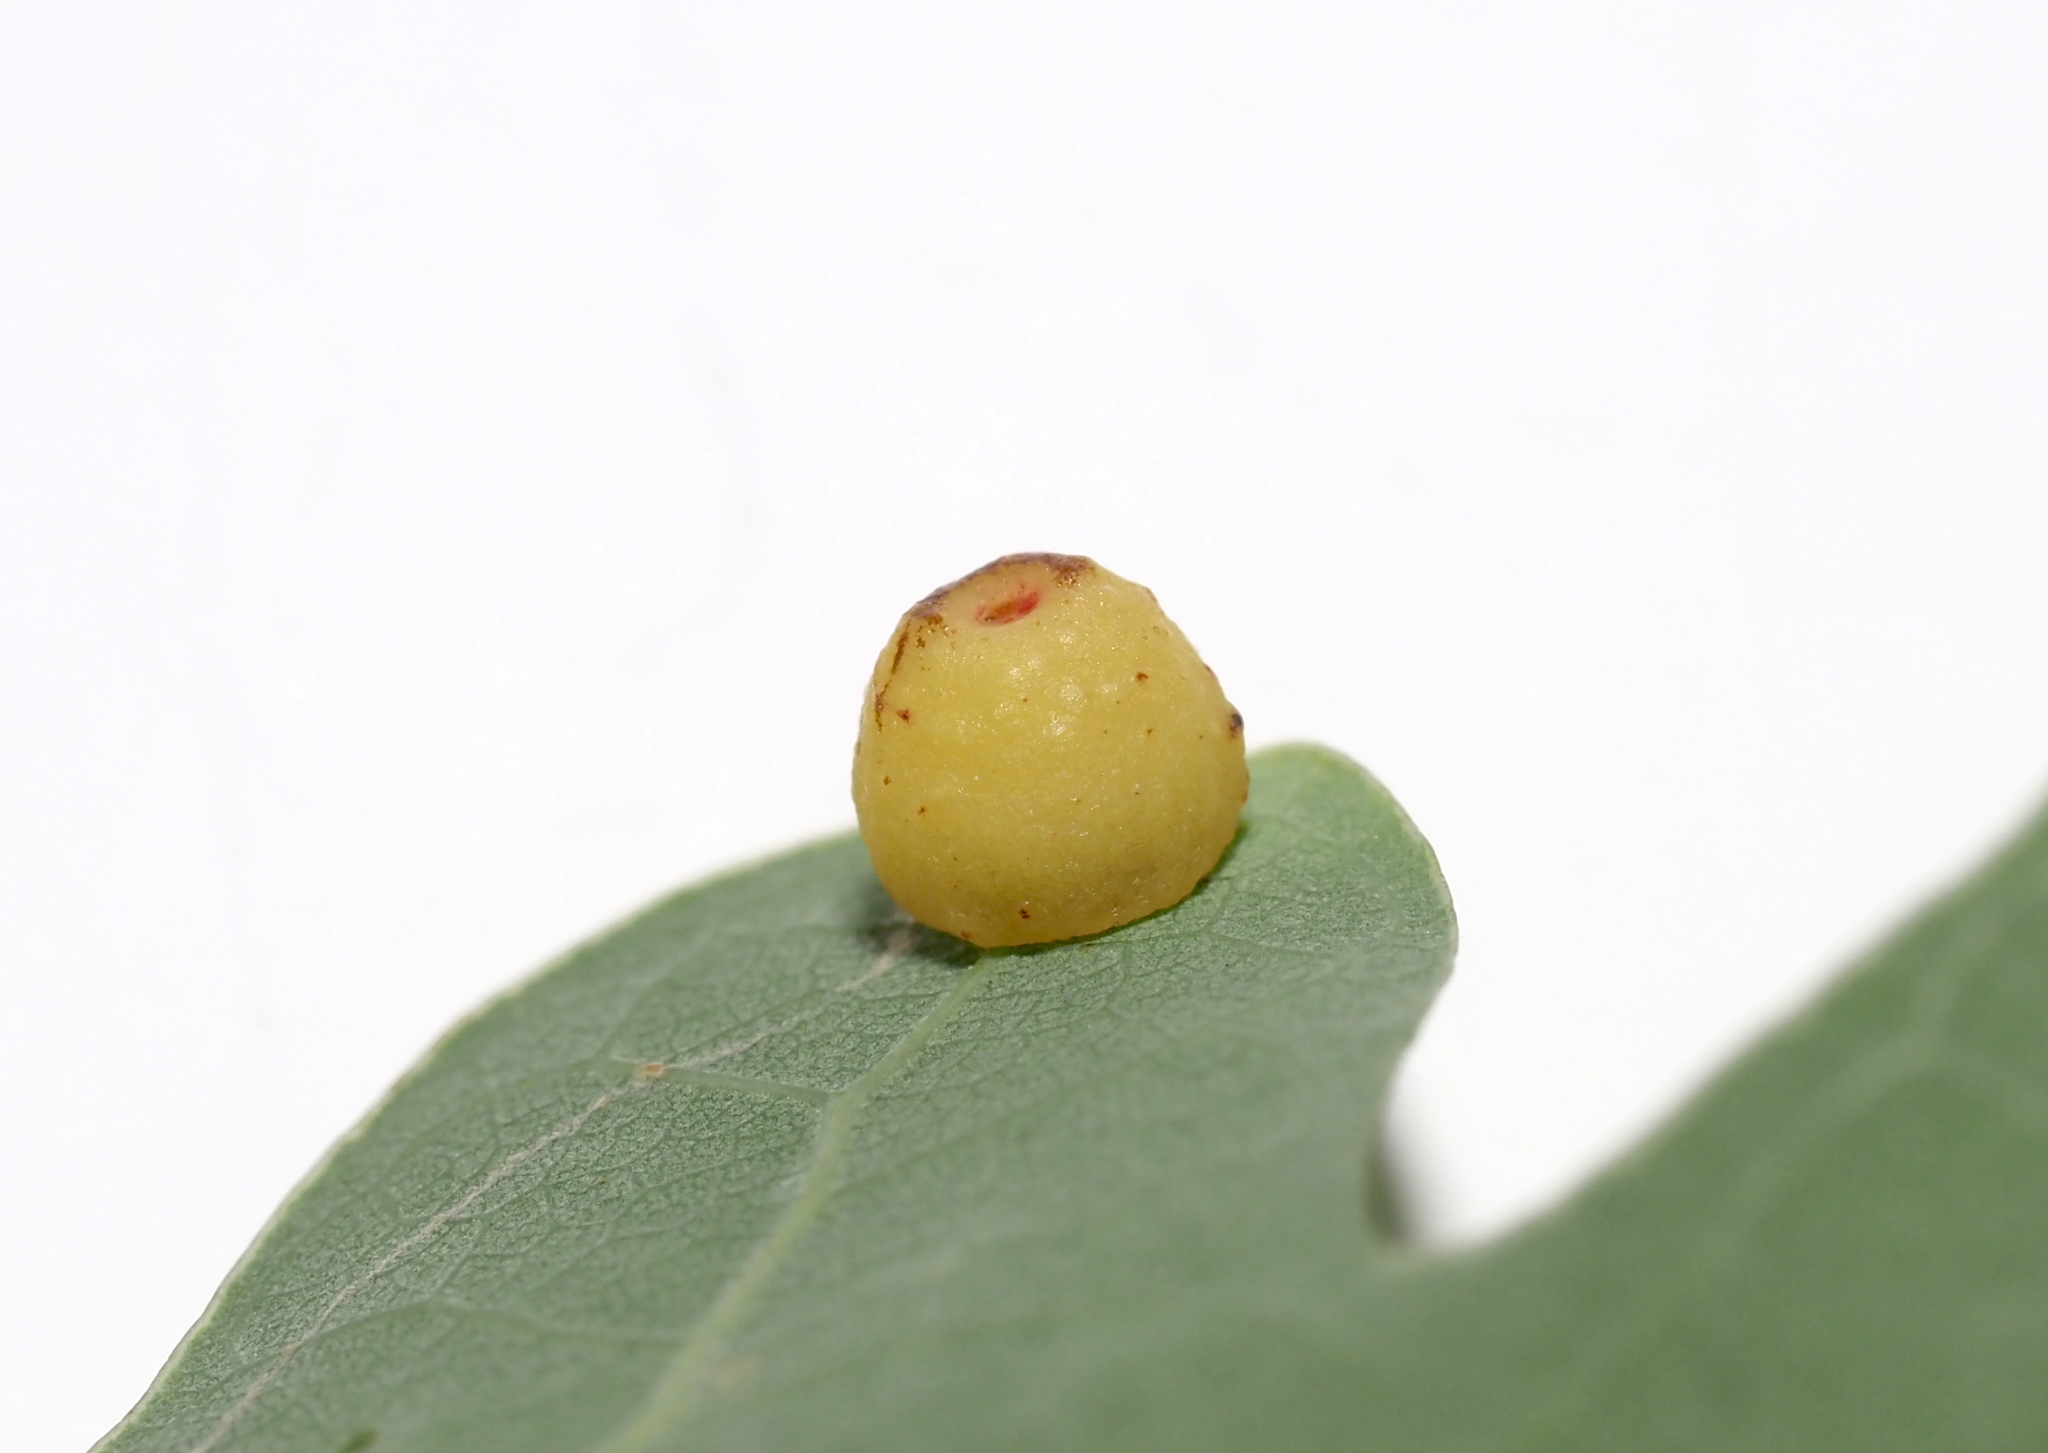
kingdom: Animalia
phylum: Arthropoda
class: Insecta
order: Hymenoptera
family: Cynipidae
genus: Andricus
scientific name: Andricus
